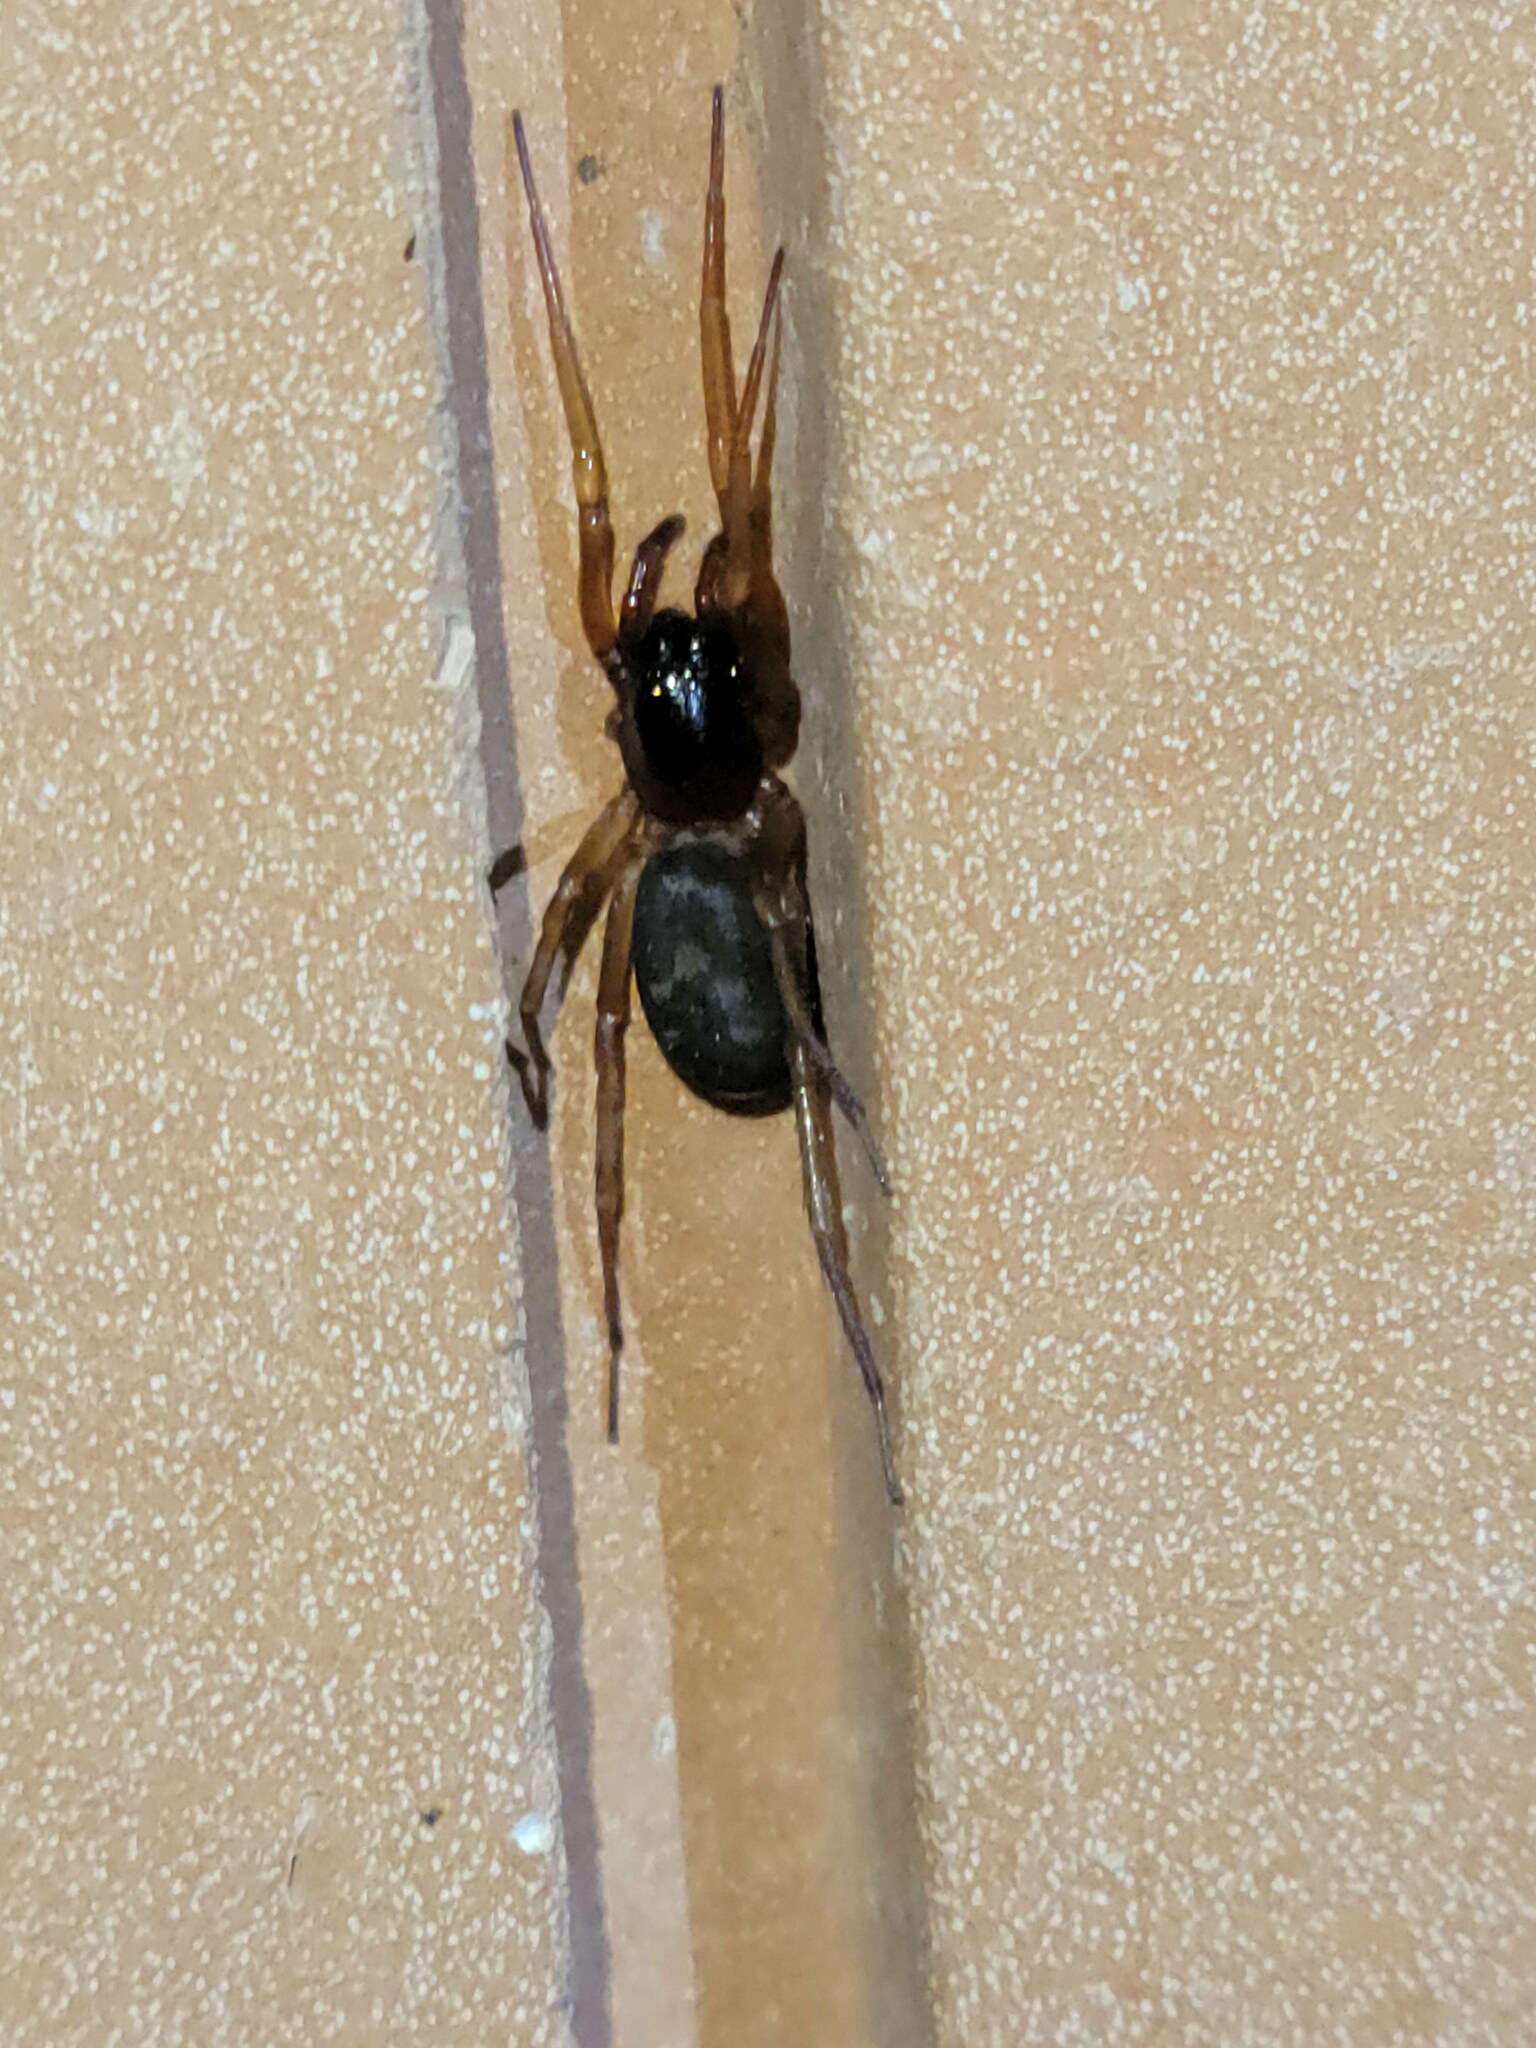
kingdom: Animalia
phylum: Arthropoda
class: Arachnida
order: Araneae
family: Corinnidae
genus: Falconina
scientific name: Falconina gracilis
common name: Antmimic spider
